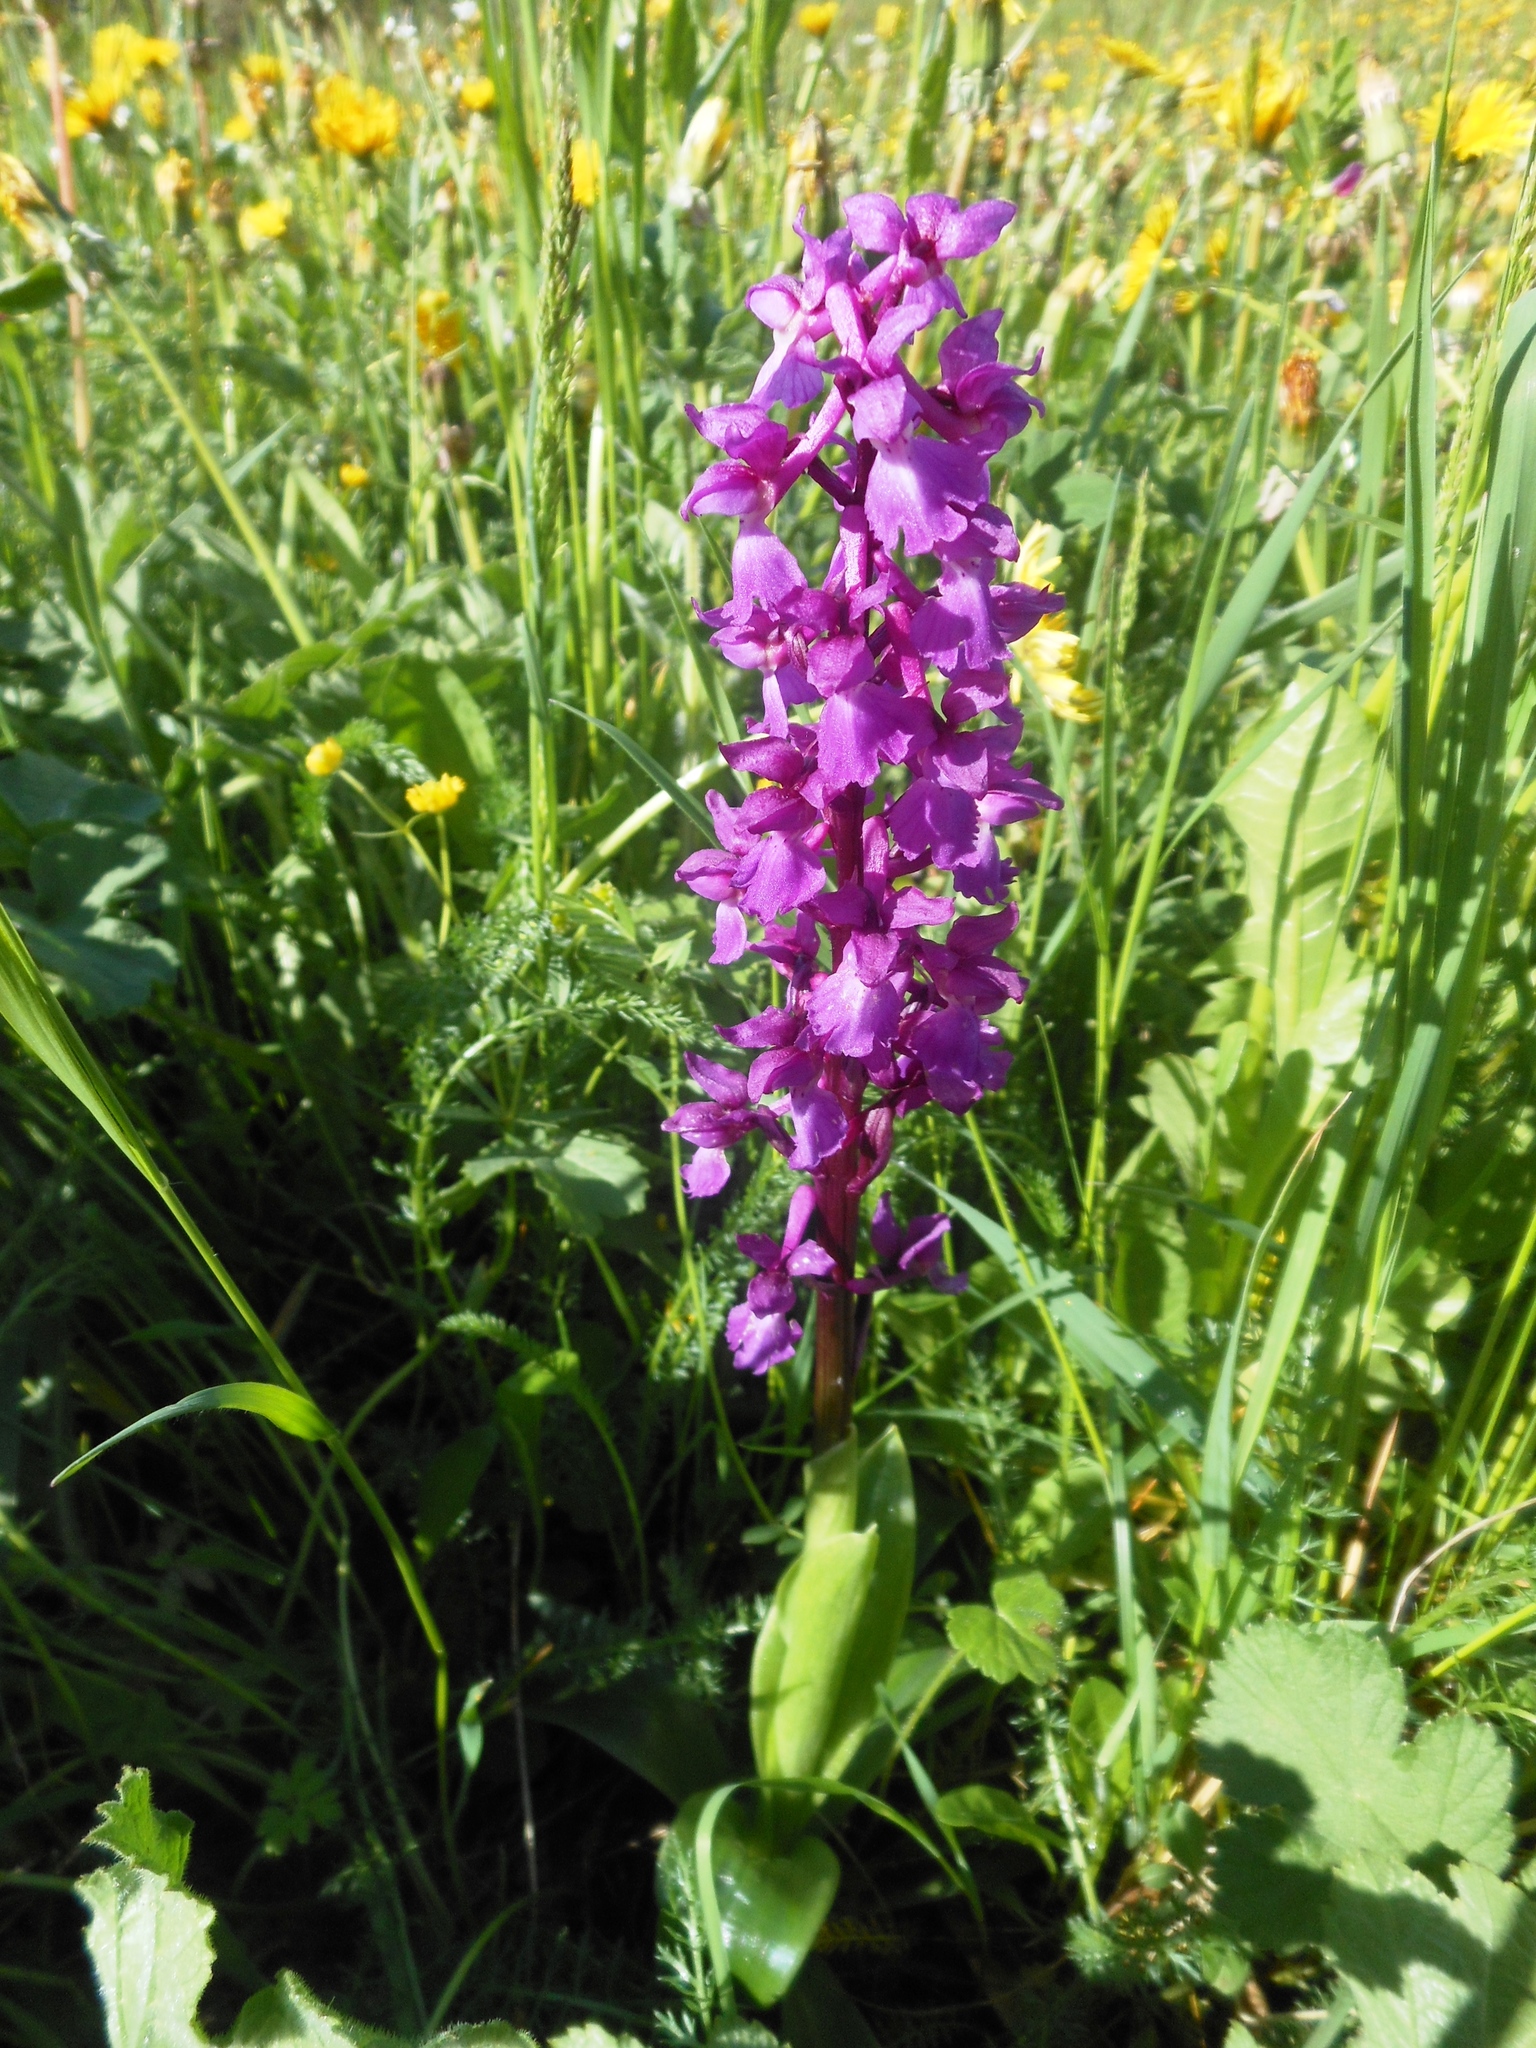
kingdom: Plantae
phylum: Tracheophyta
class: Liliopsida
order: Asparagales
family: Orchidaceae
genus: Orchis
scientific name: Orchis mascula
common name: Early-purple orchid
